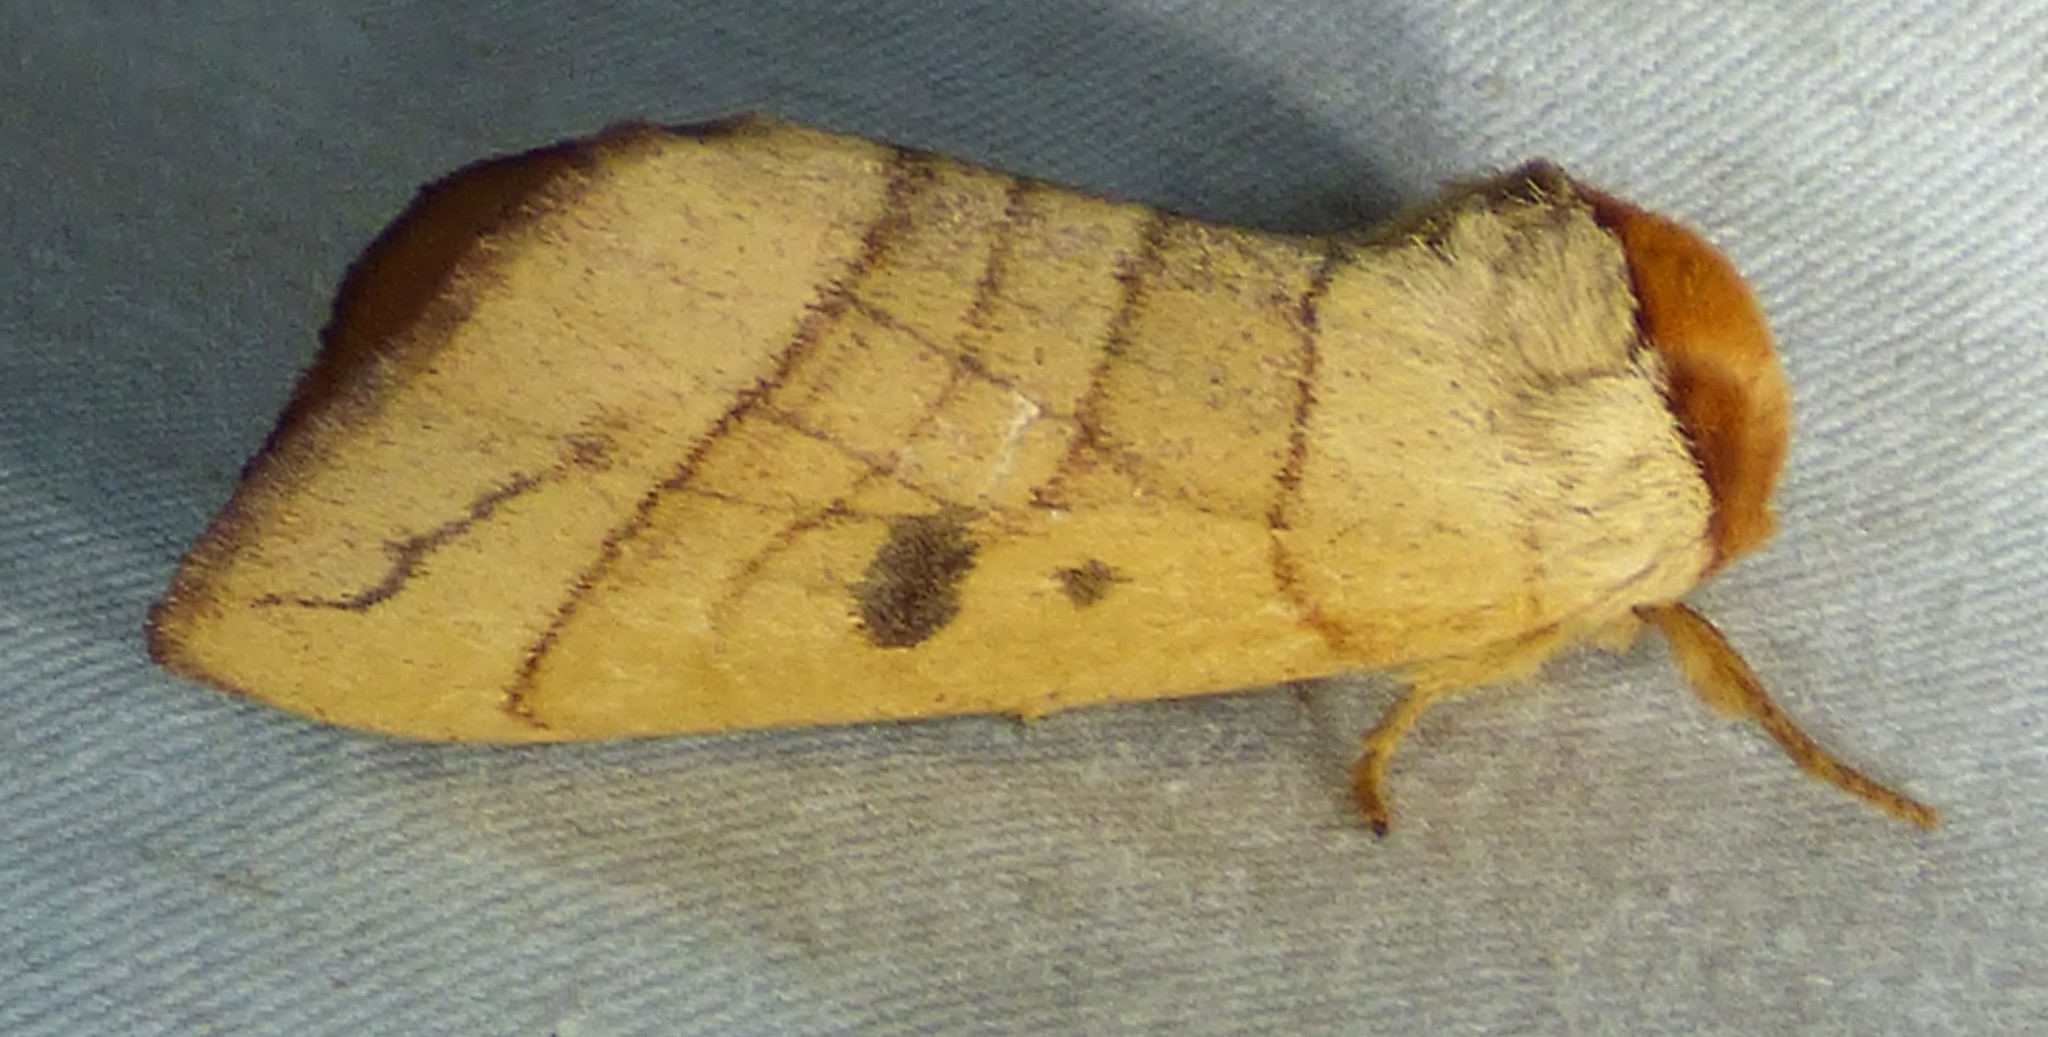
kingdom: Animalia
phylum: Arthropoda
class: Insecta
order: Lepidoptera
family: Notodontidae
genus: Datana
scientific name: Datana perspicua
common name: Spotted datana
